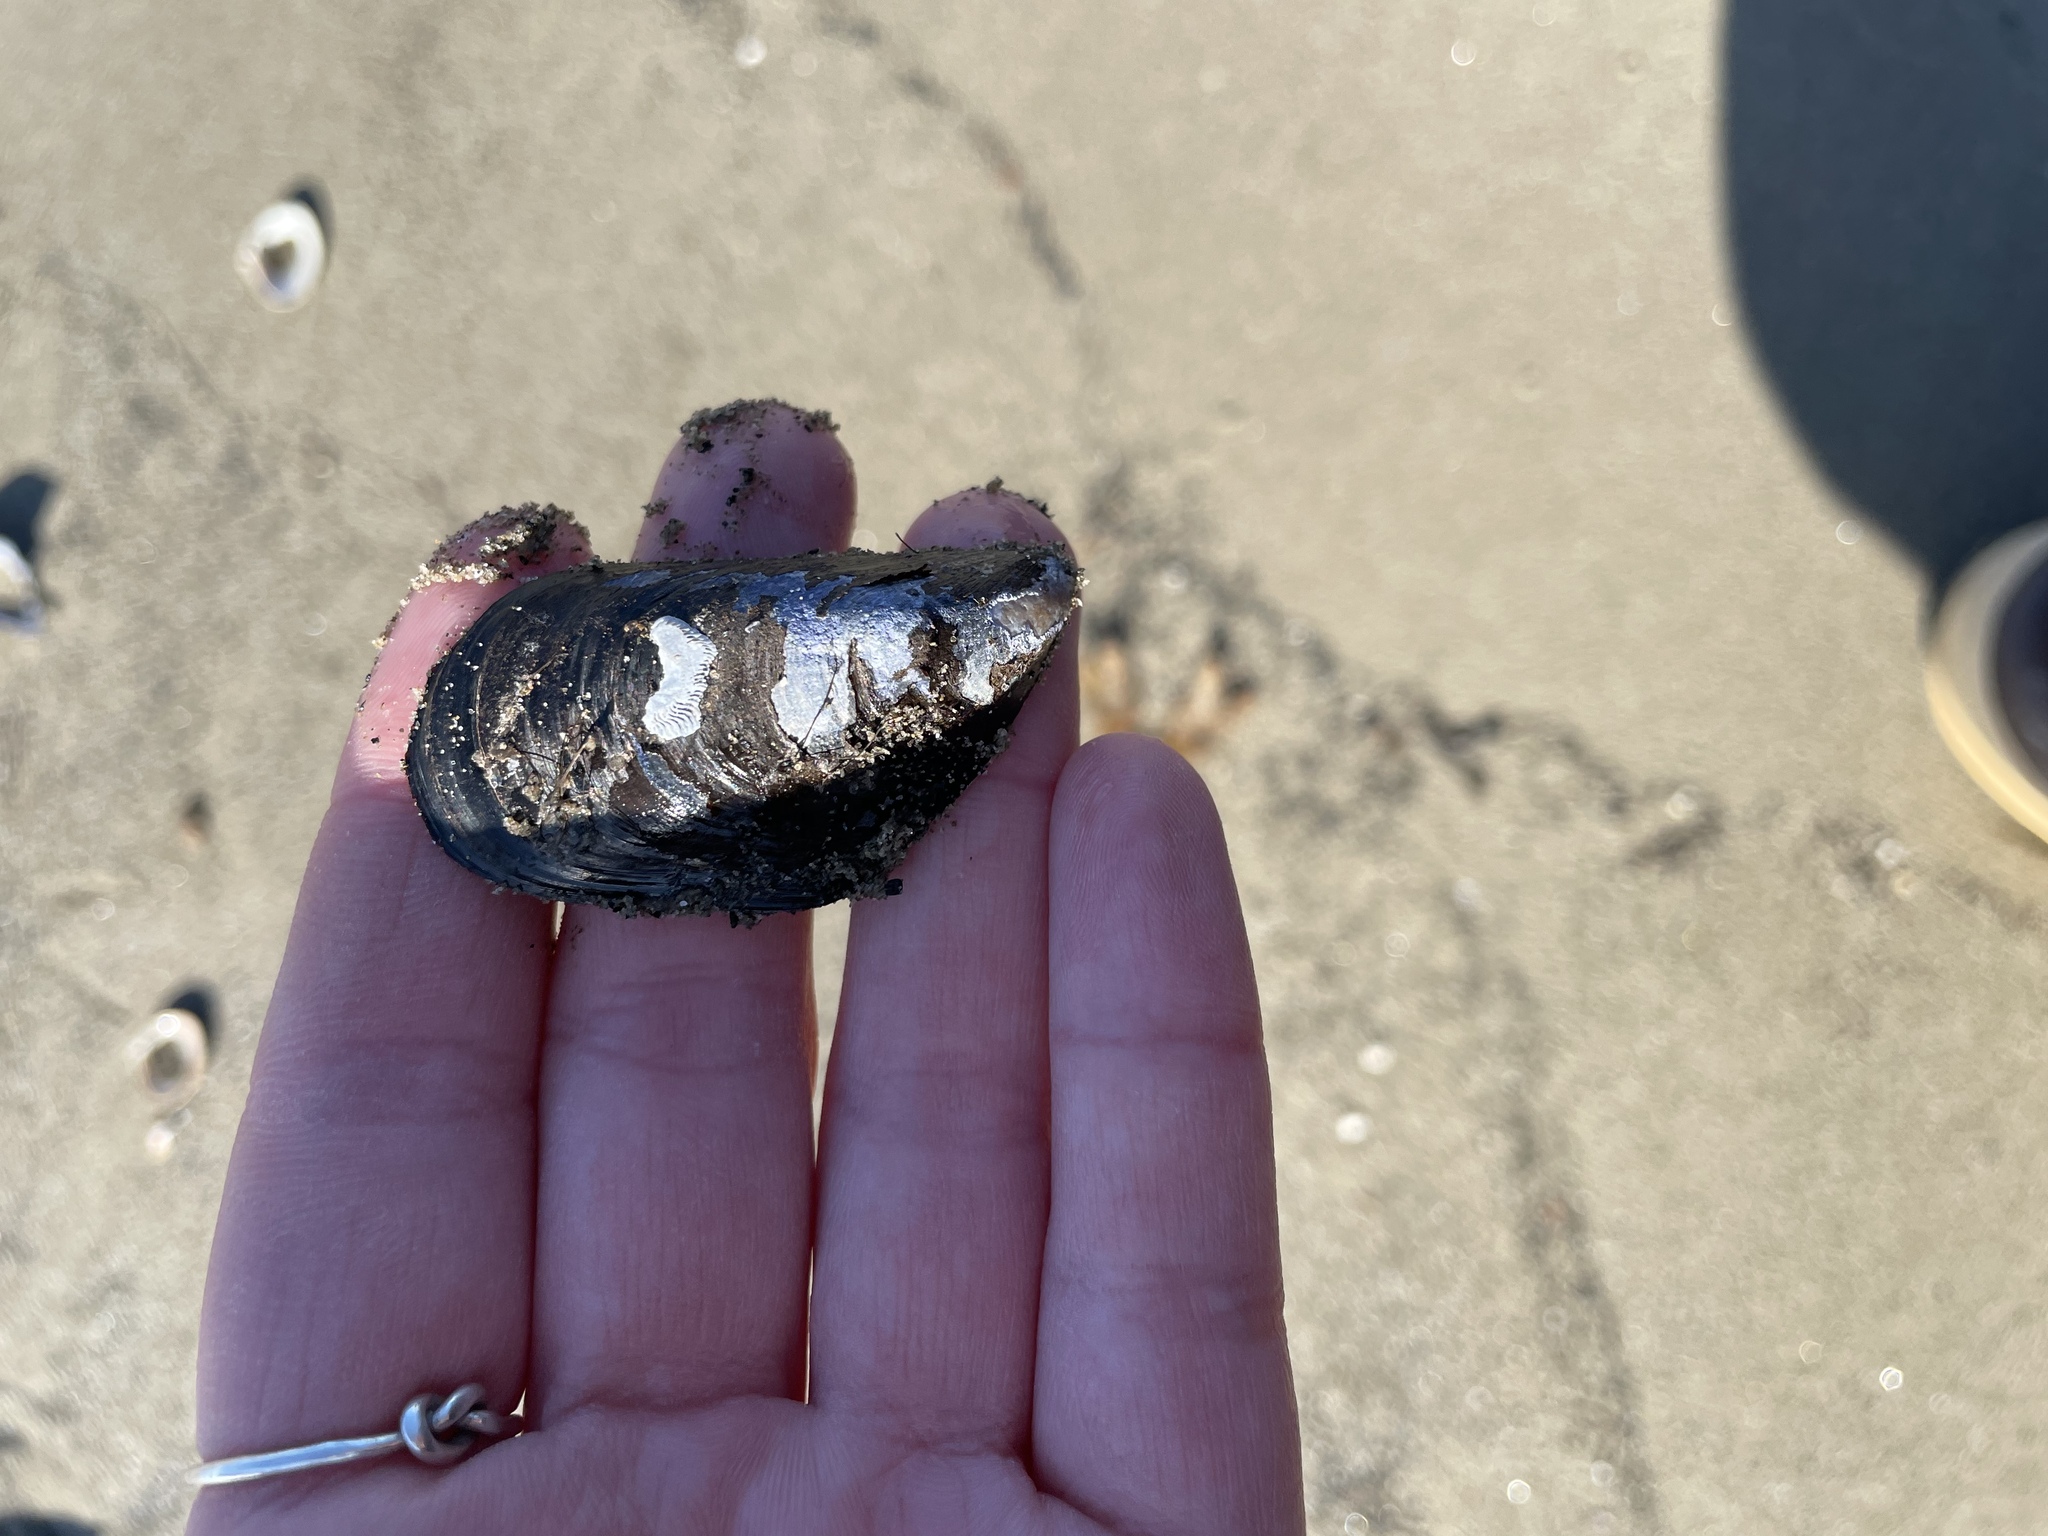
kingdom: Animalia
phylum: Mollusca
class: Bivalvia
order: Mytilida
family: Mytilidae
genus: Mytilus
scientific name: Mytilus
